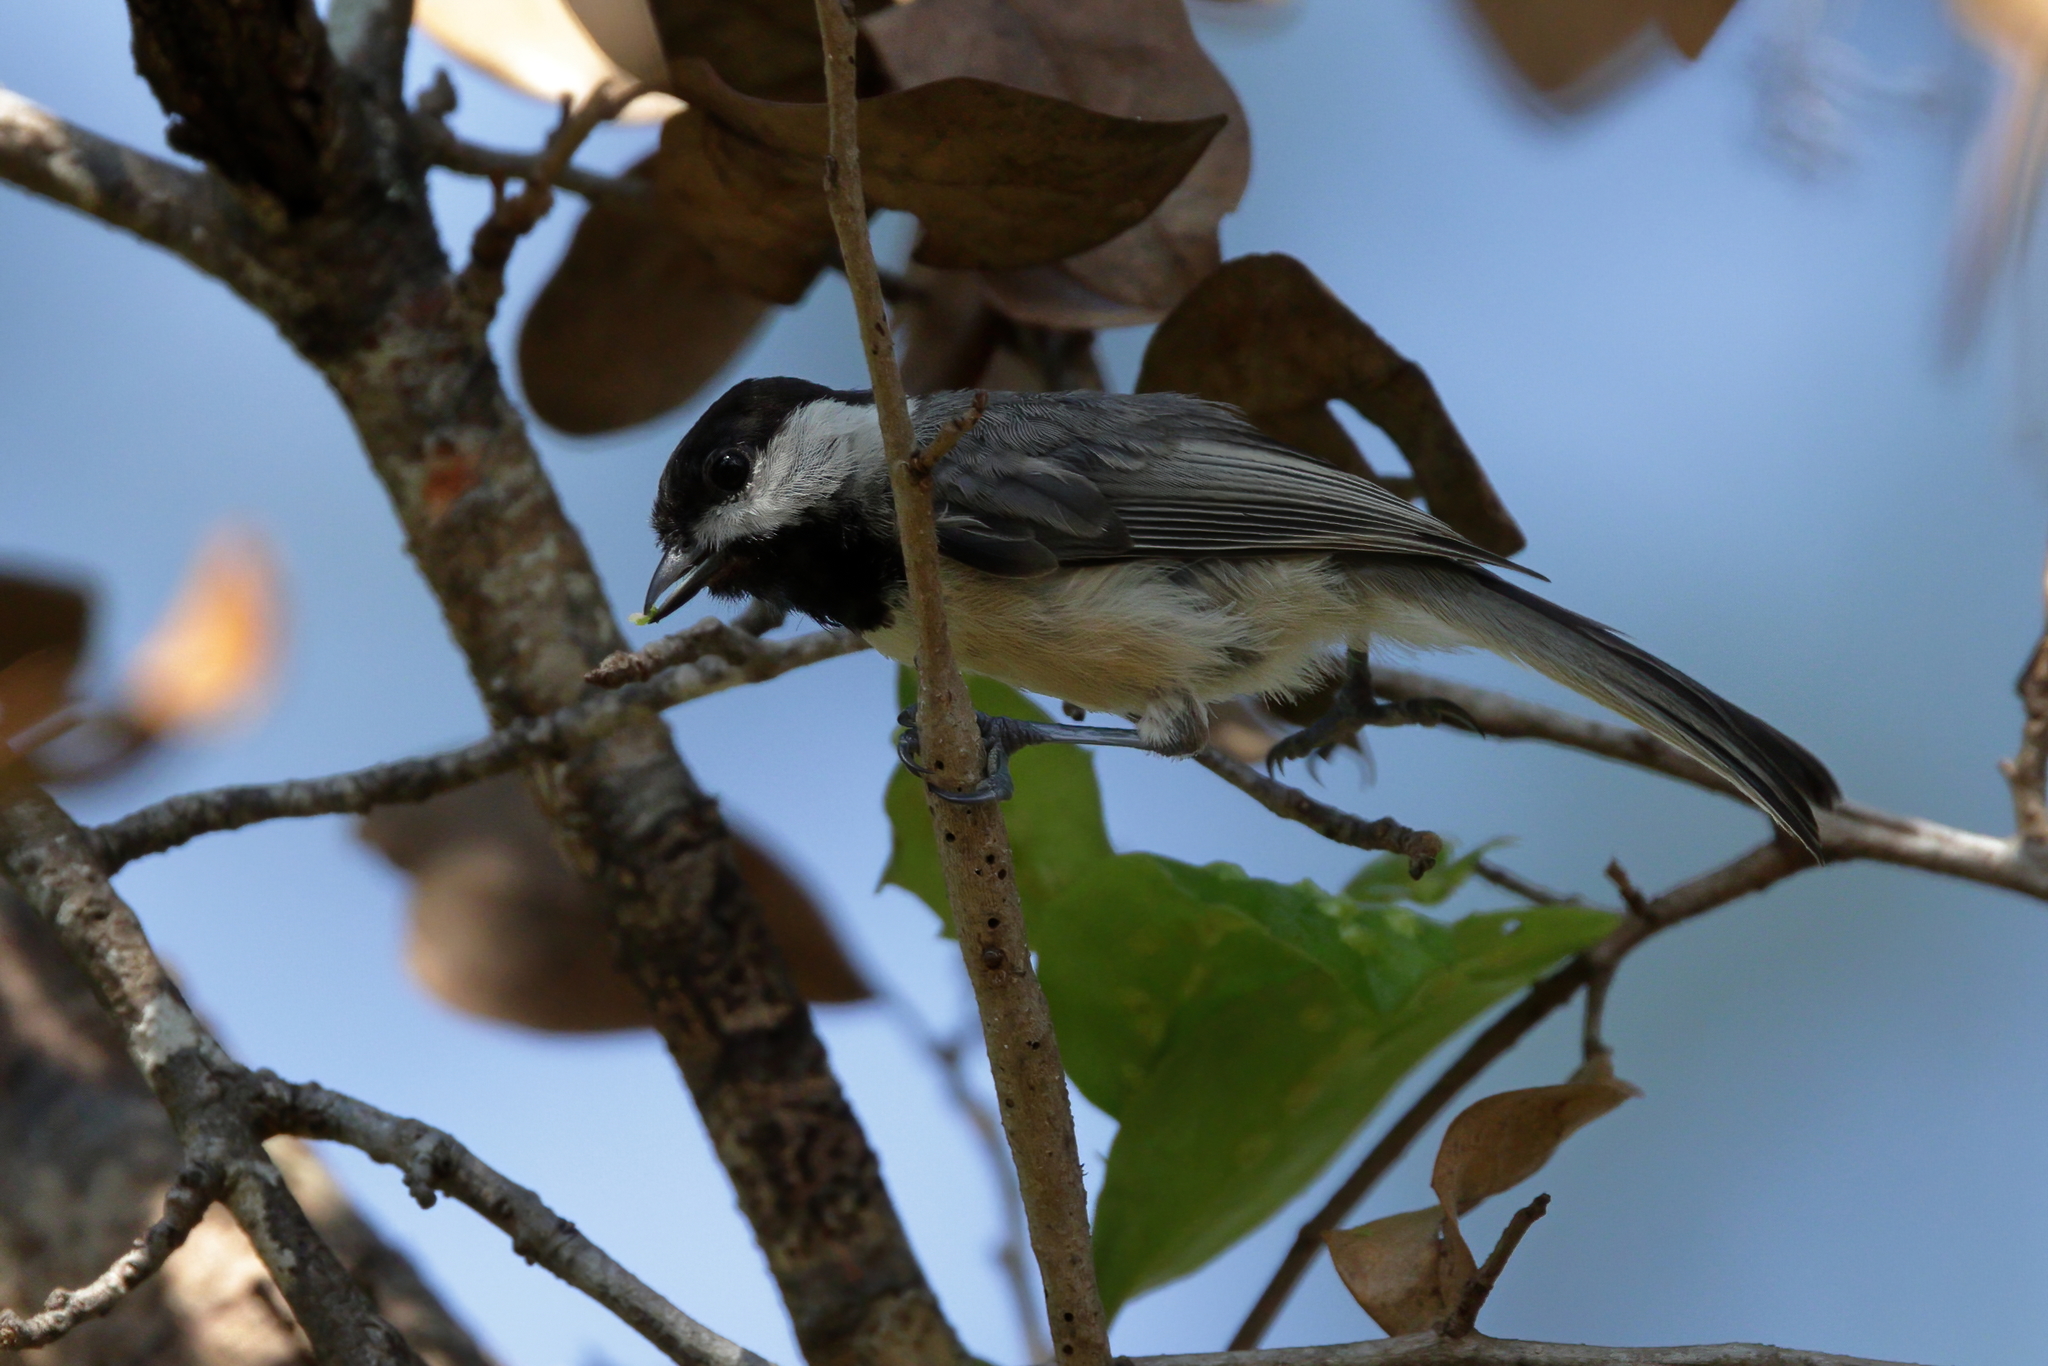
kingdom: Animalia
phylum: Chordata
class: Aves
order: Passeriformes
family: Paridae
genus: Poecile
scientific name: Poecile carolinensis
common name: Carolina chickadee
